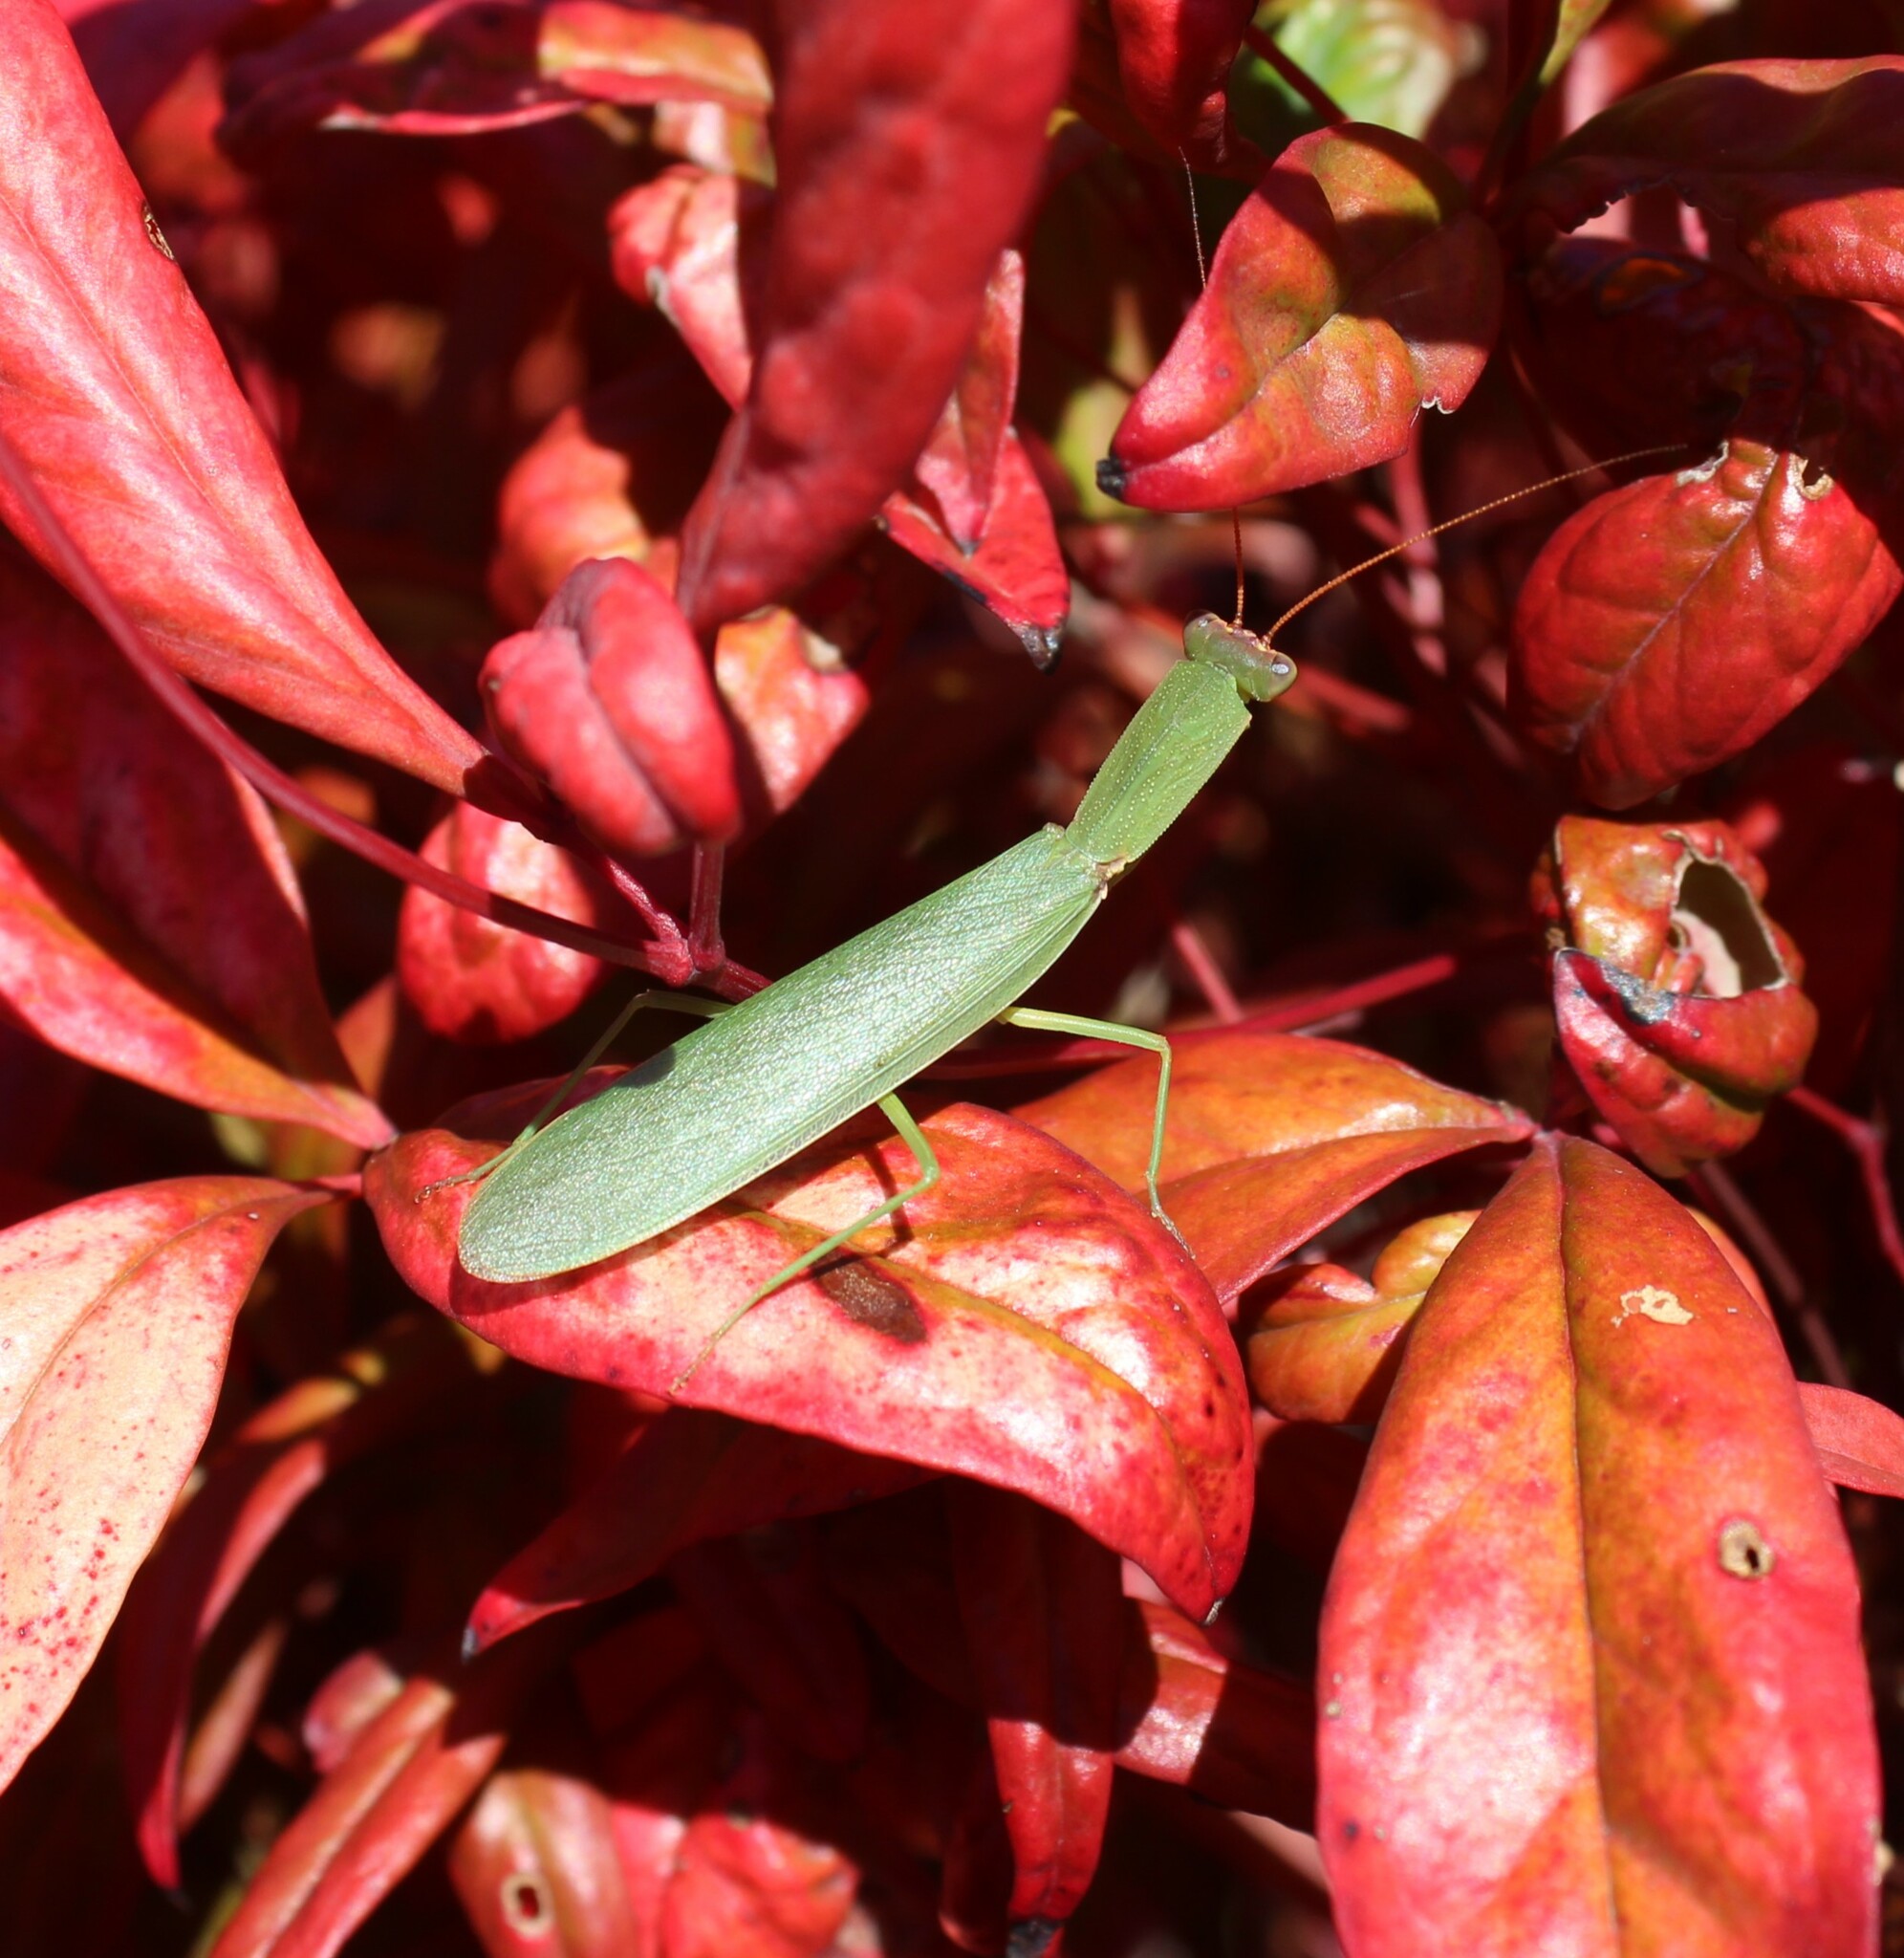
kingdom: Animalia
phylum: Arthropoda
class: Insecta
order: Mantodea
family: Mantidae
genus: Orthodera
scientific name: Orthodera novaezealandiae
